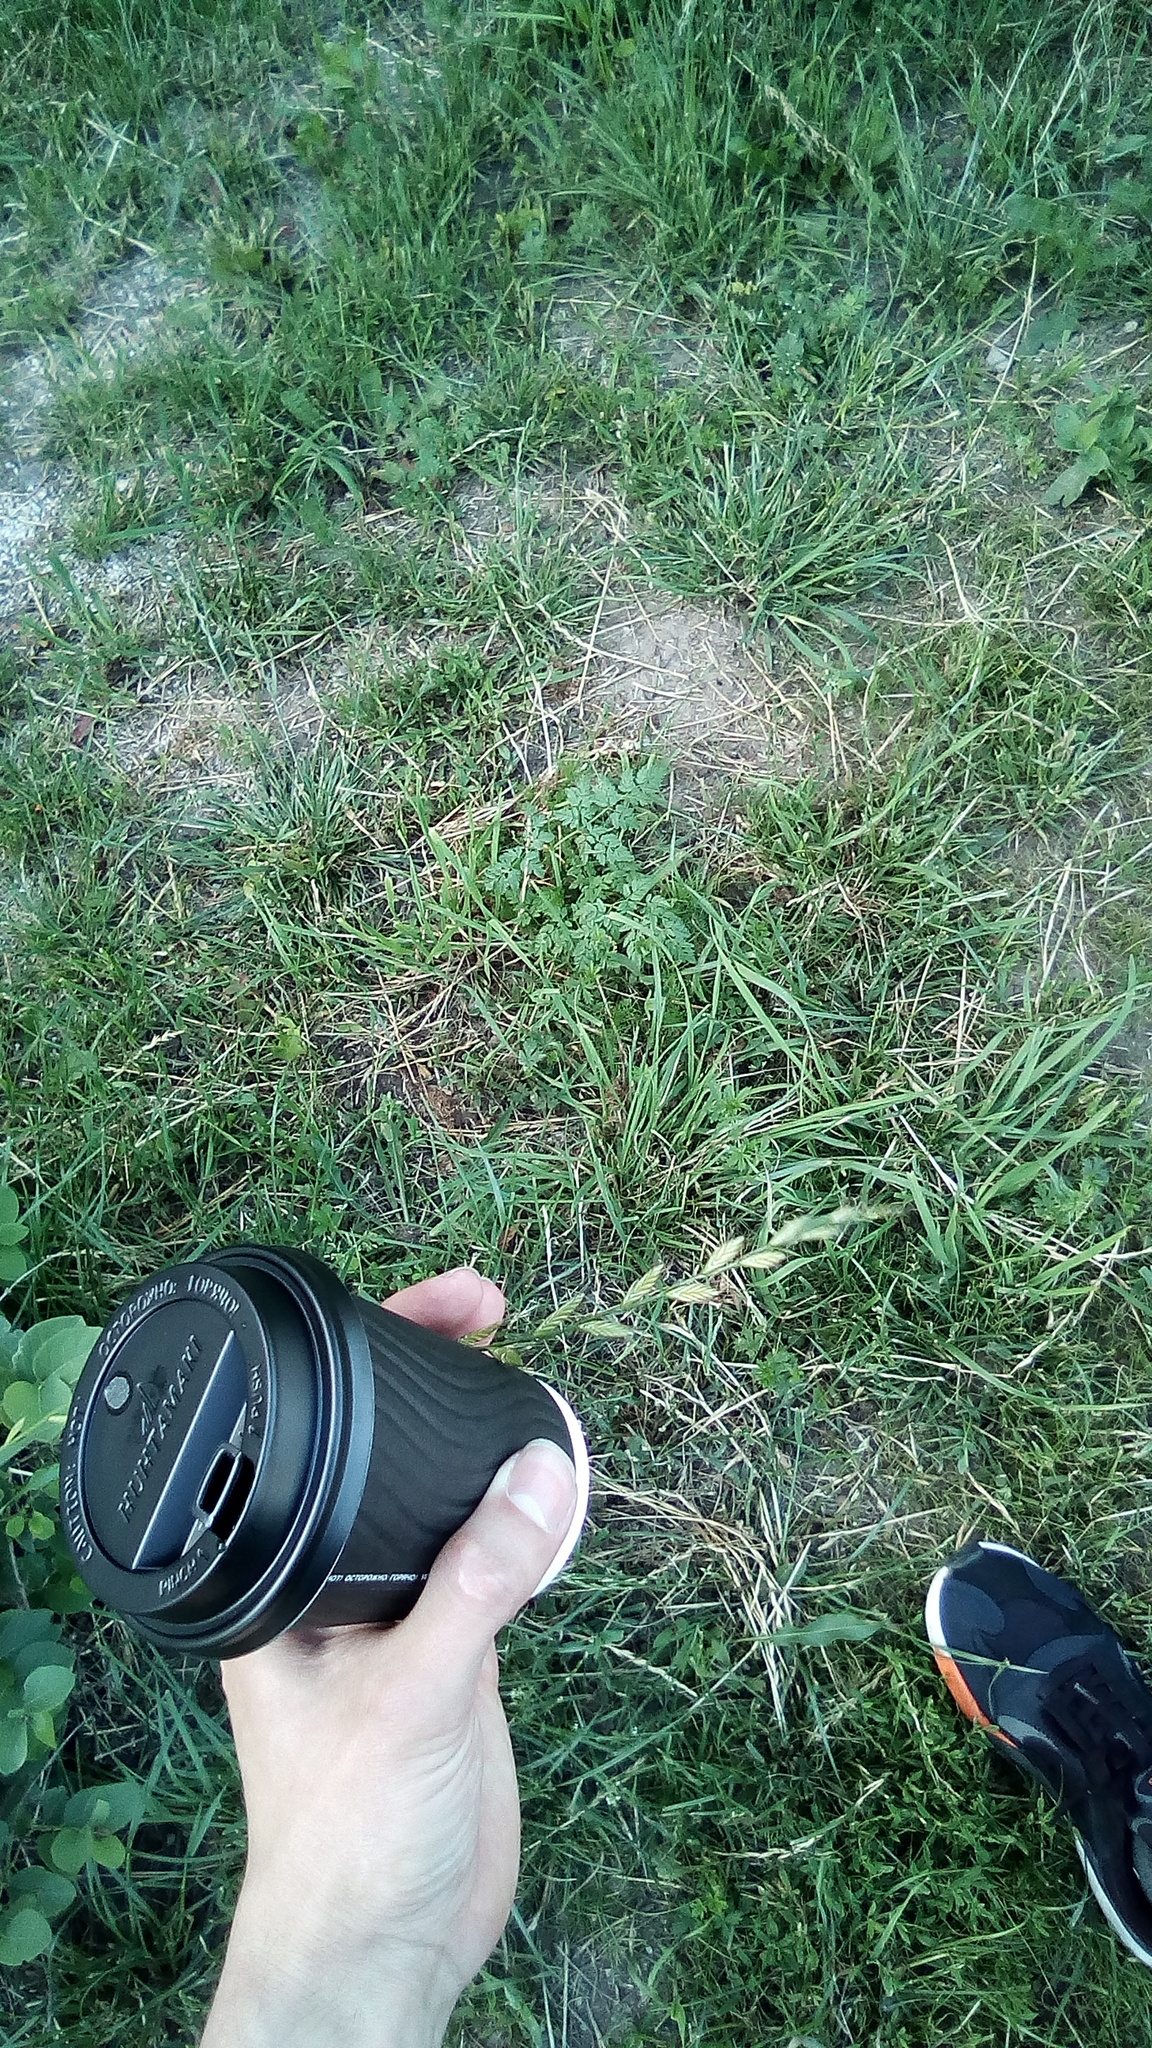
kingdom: Plantae
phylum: Tracheophyta
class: Liliopsida
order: Poales
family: Poaceae
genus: Lolium
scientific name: Lolium multiflorum
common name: Annual ryegrass
